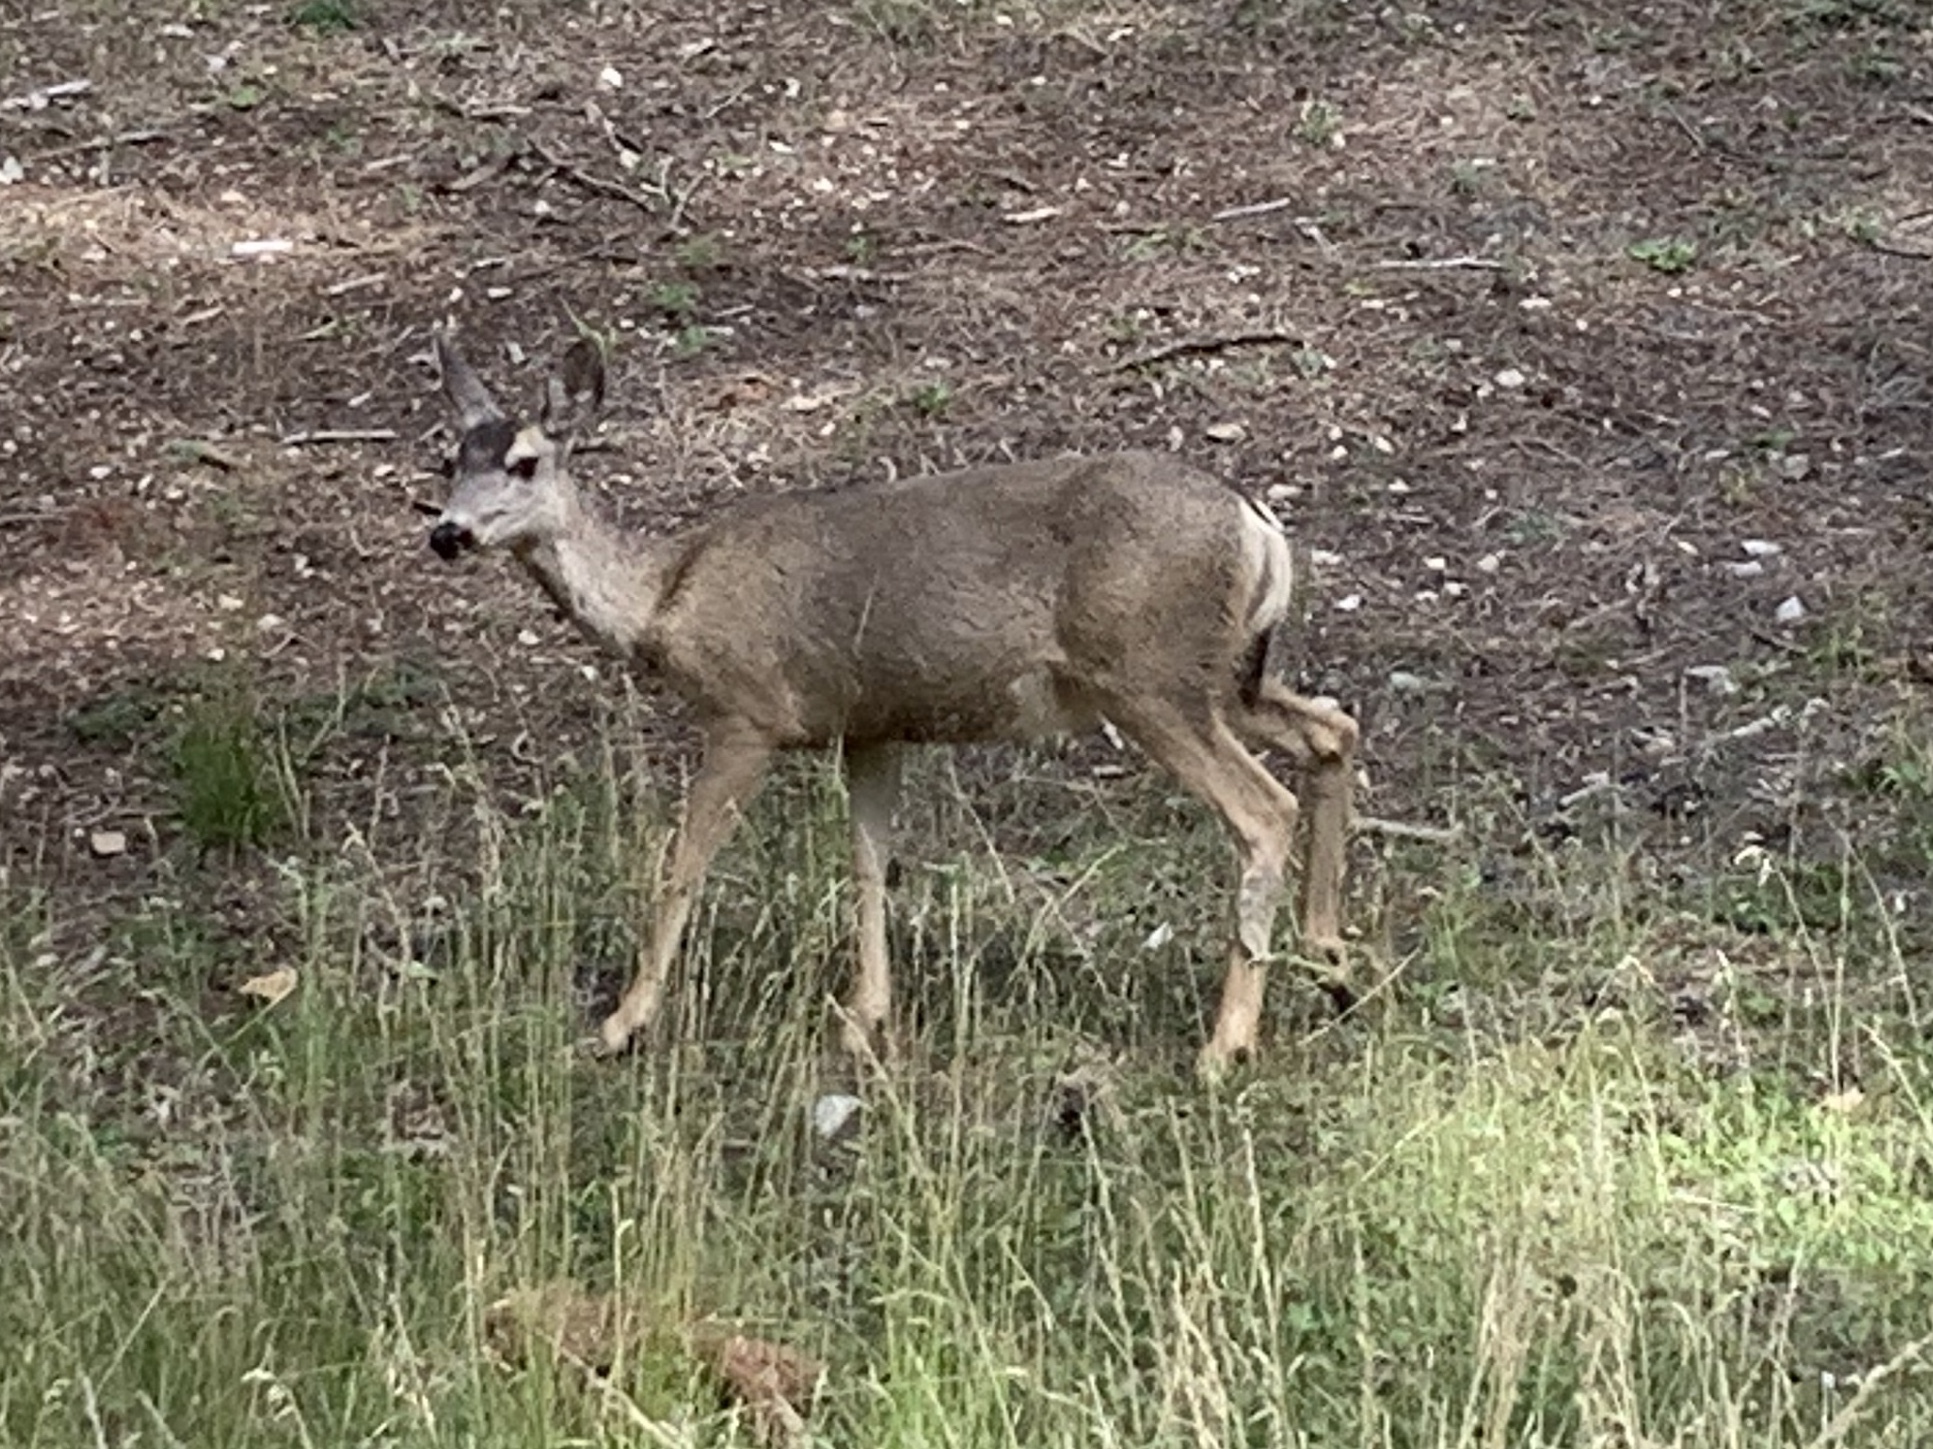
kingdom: Animalia
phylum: Chordata
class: Mammalia
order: Artiodactyla
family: Cervidae
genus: Odocoileus
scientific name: Odocoileus hemionus
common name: Mule deer
